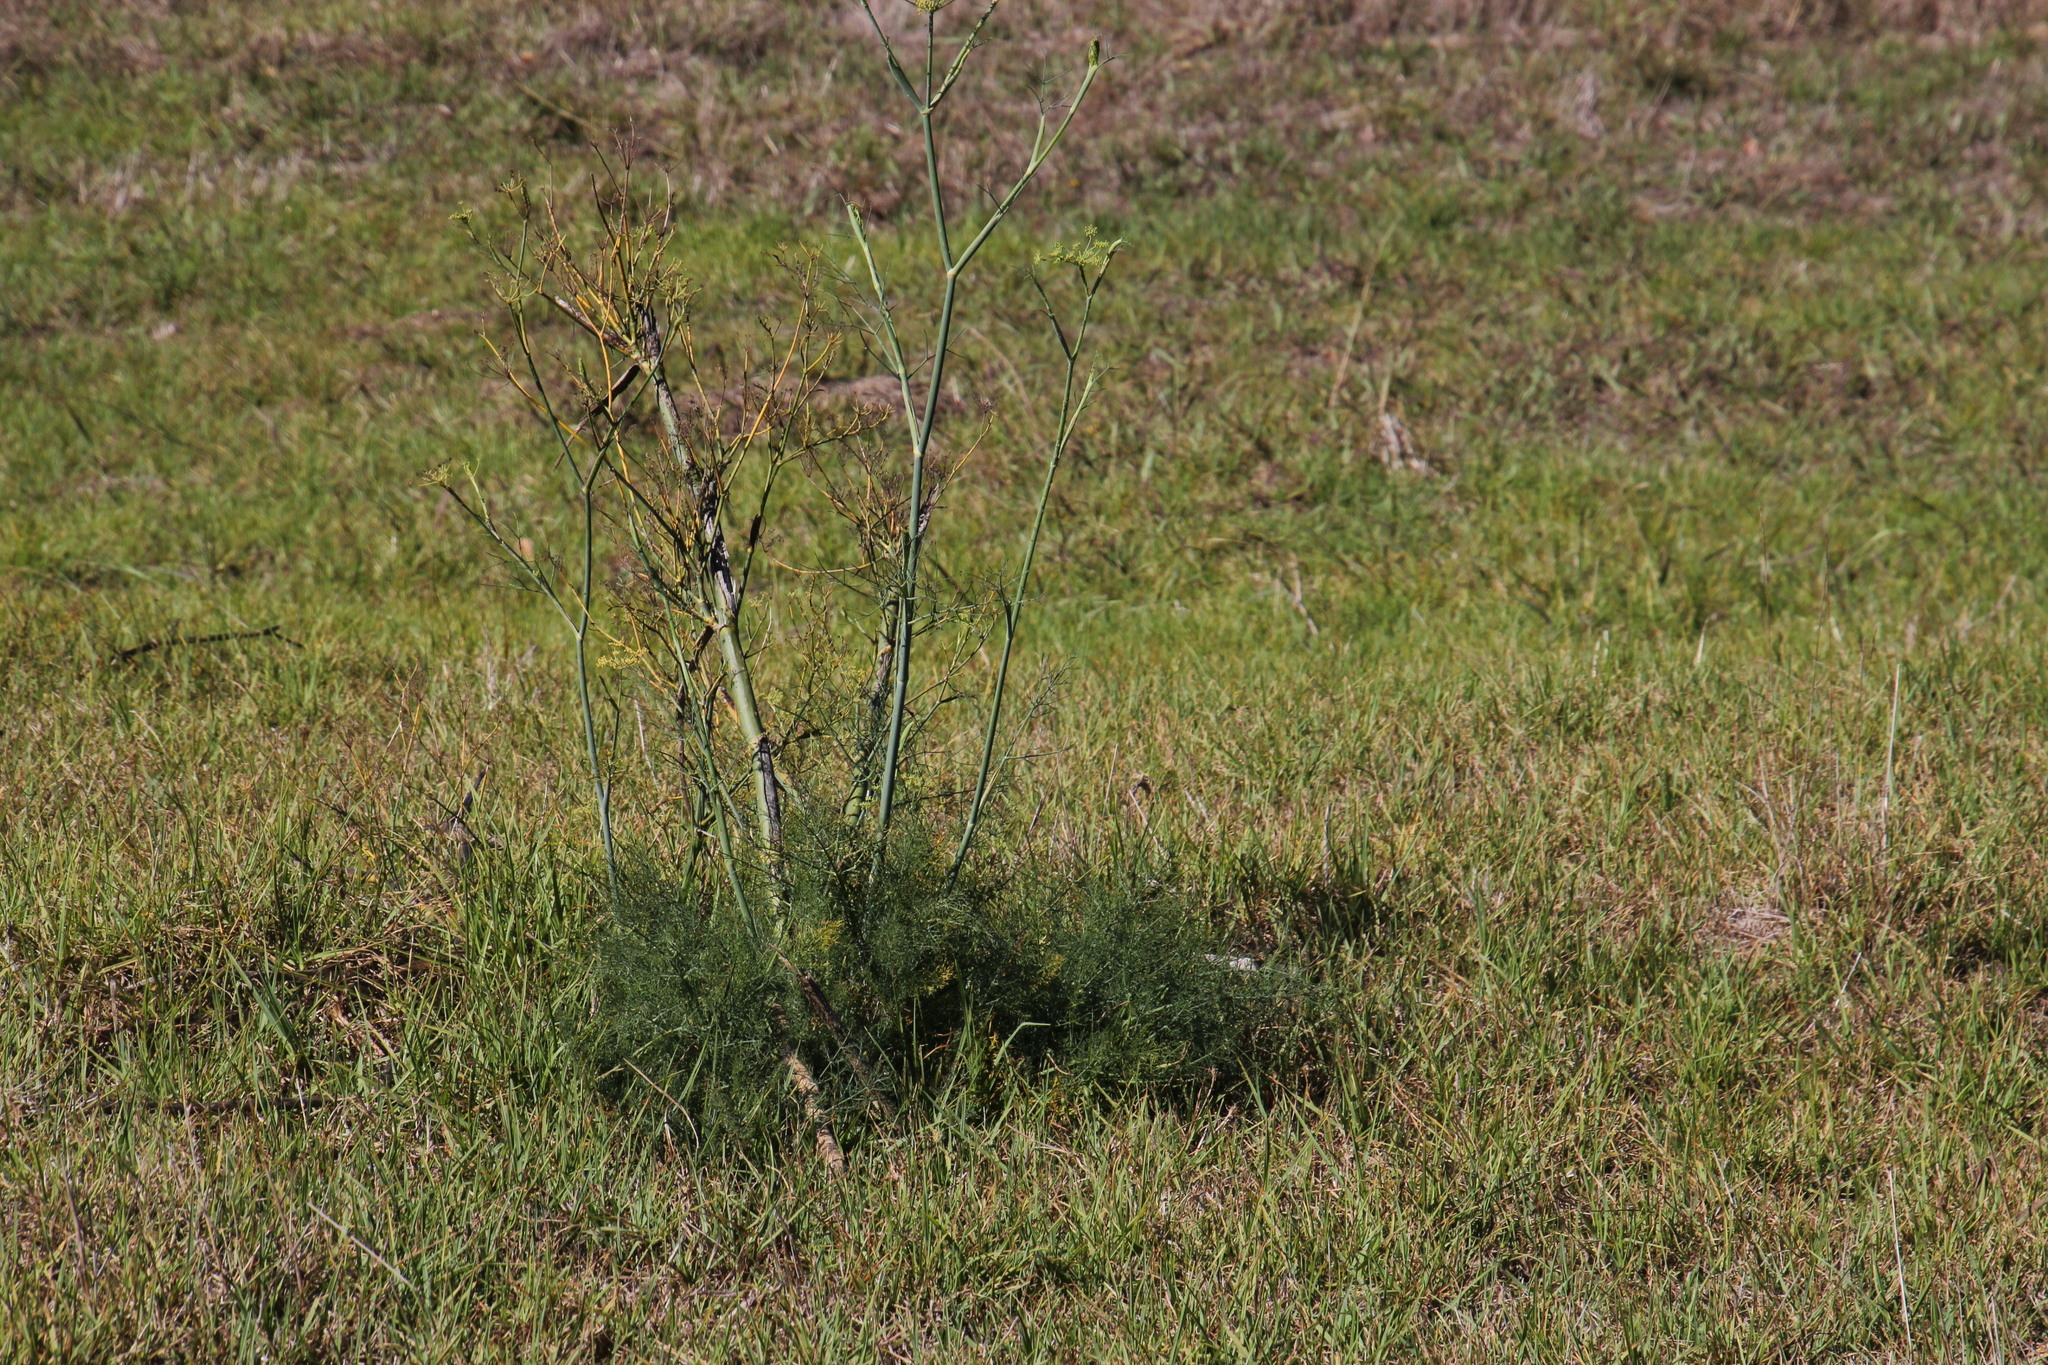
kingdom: Plantae
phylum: Tracheophyta
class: Magnoliopsida
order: Apiales
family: Apiaceae
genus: Foeniculum
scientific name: Foeniculum vulgare
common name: Fennel
